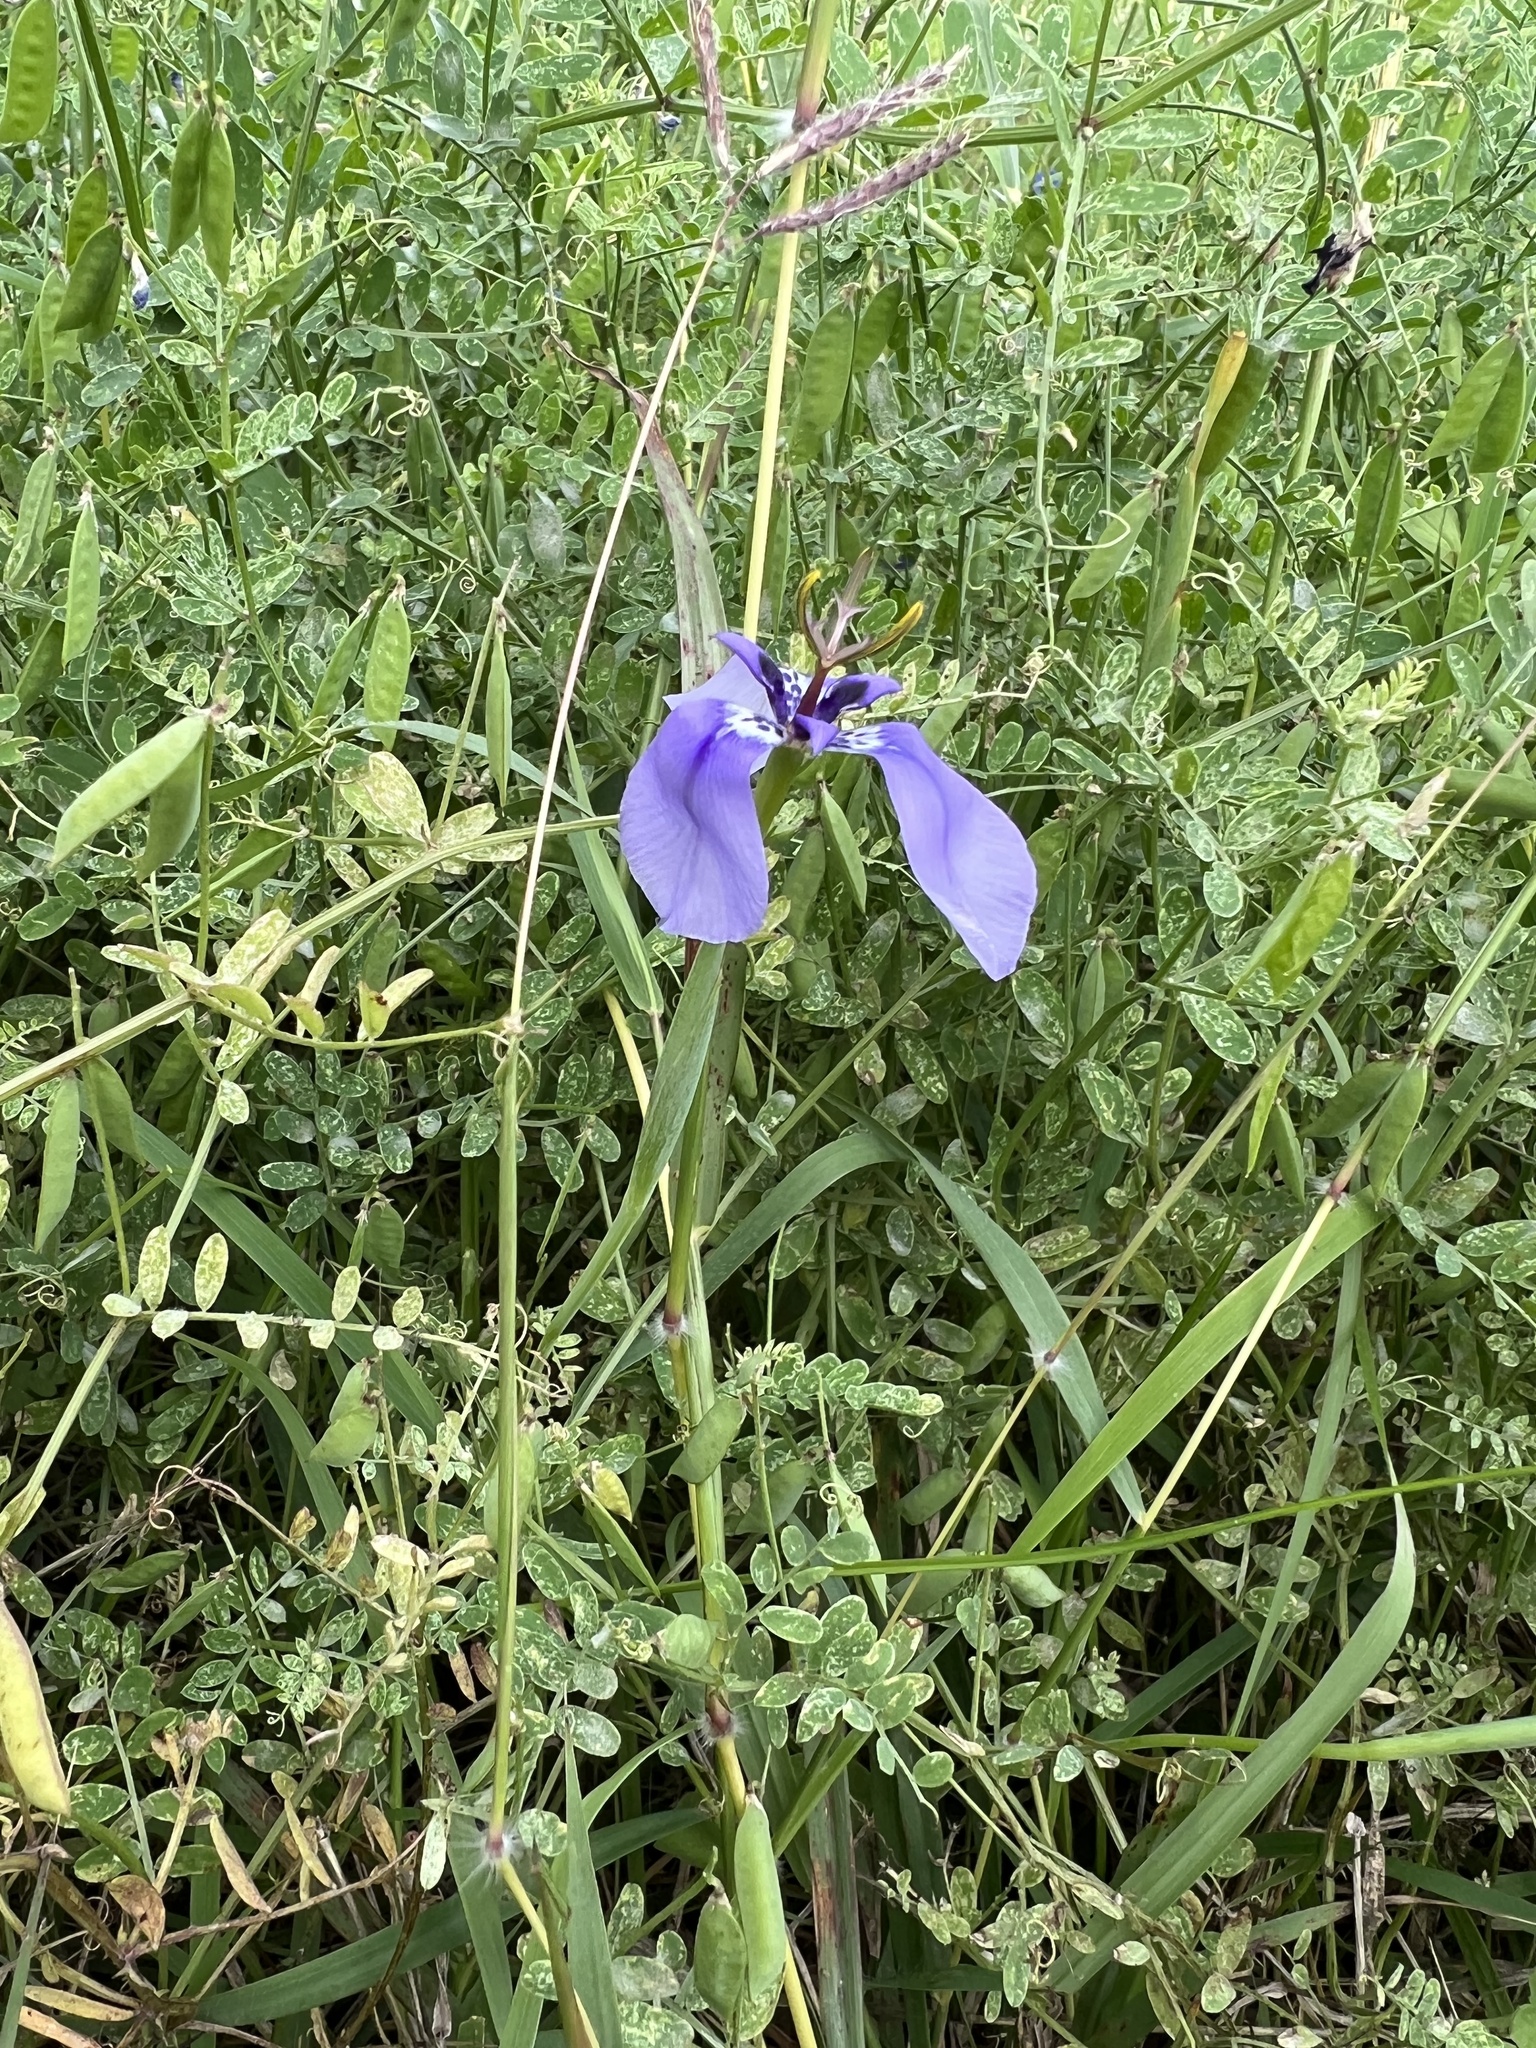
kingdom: Plantae
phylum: Tracheophyta
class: Liliopsida
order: Asparagales
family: Iridaceae
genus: Herbertia
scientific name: Herbertia lahue
